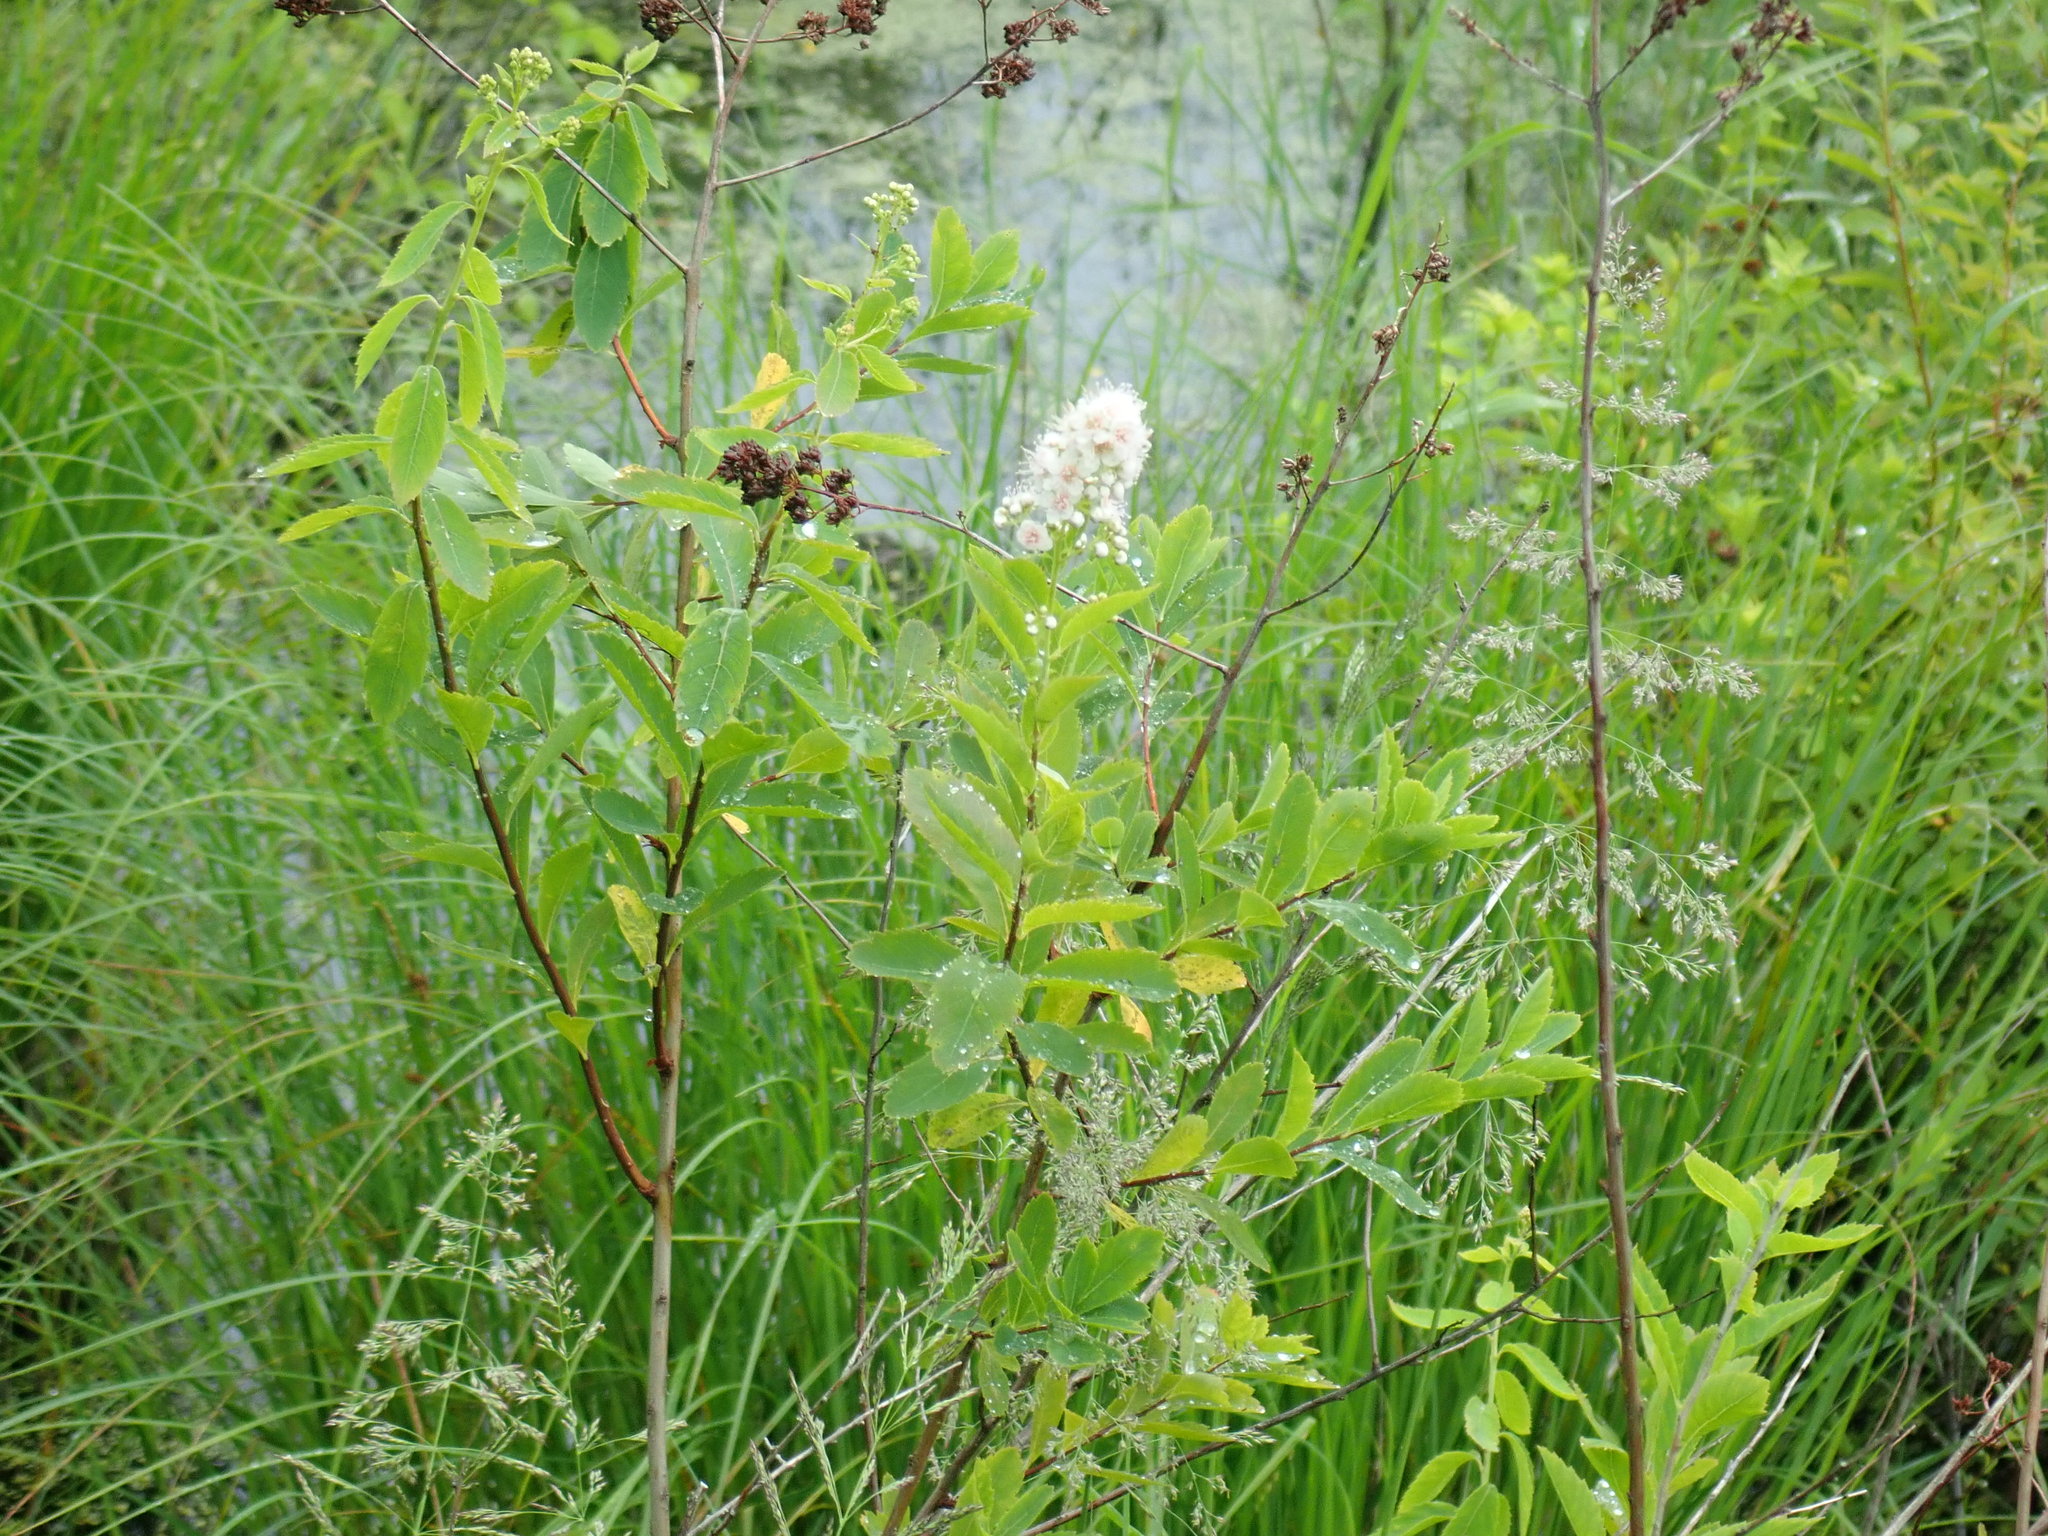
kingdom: Plantae
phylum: Tracheophyta
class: Magnoliopsida
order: Rosales
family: Rosaceae
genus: Spiraea
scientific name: Spiraea alba
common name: Pale bridewort
